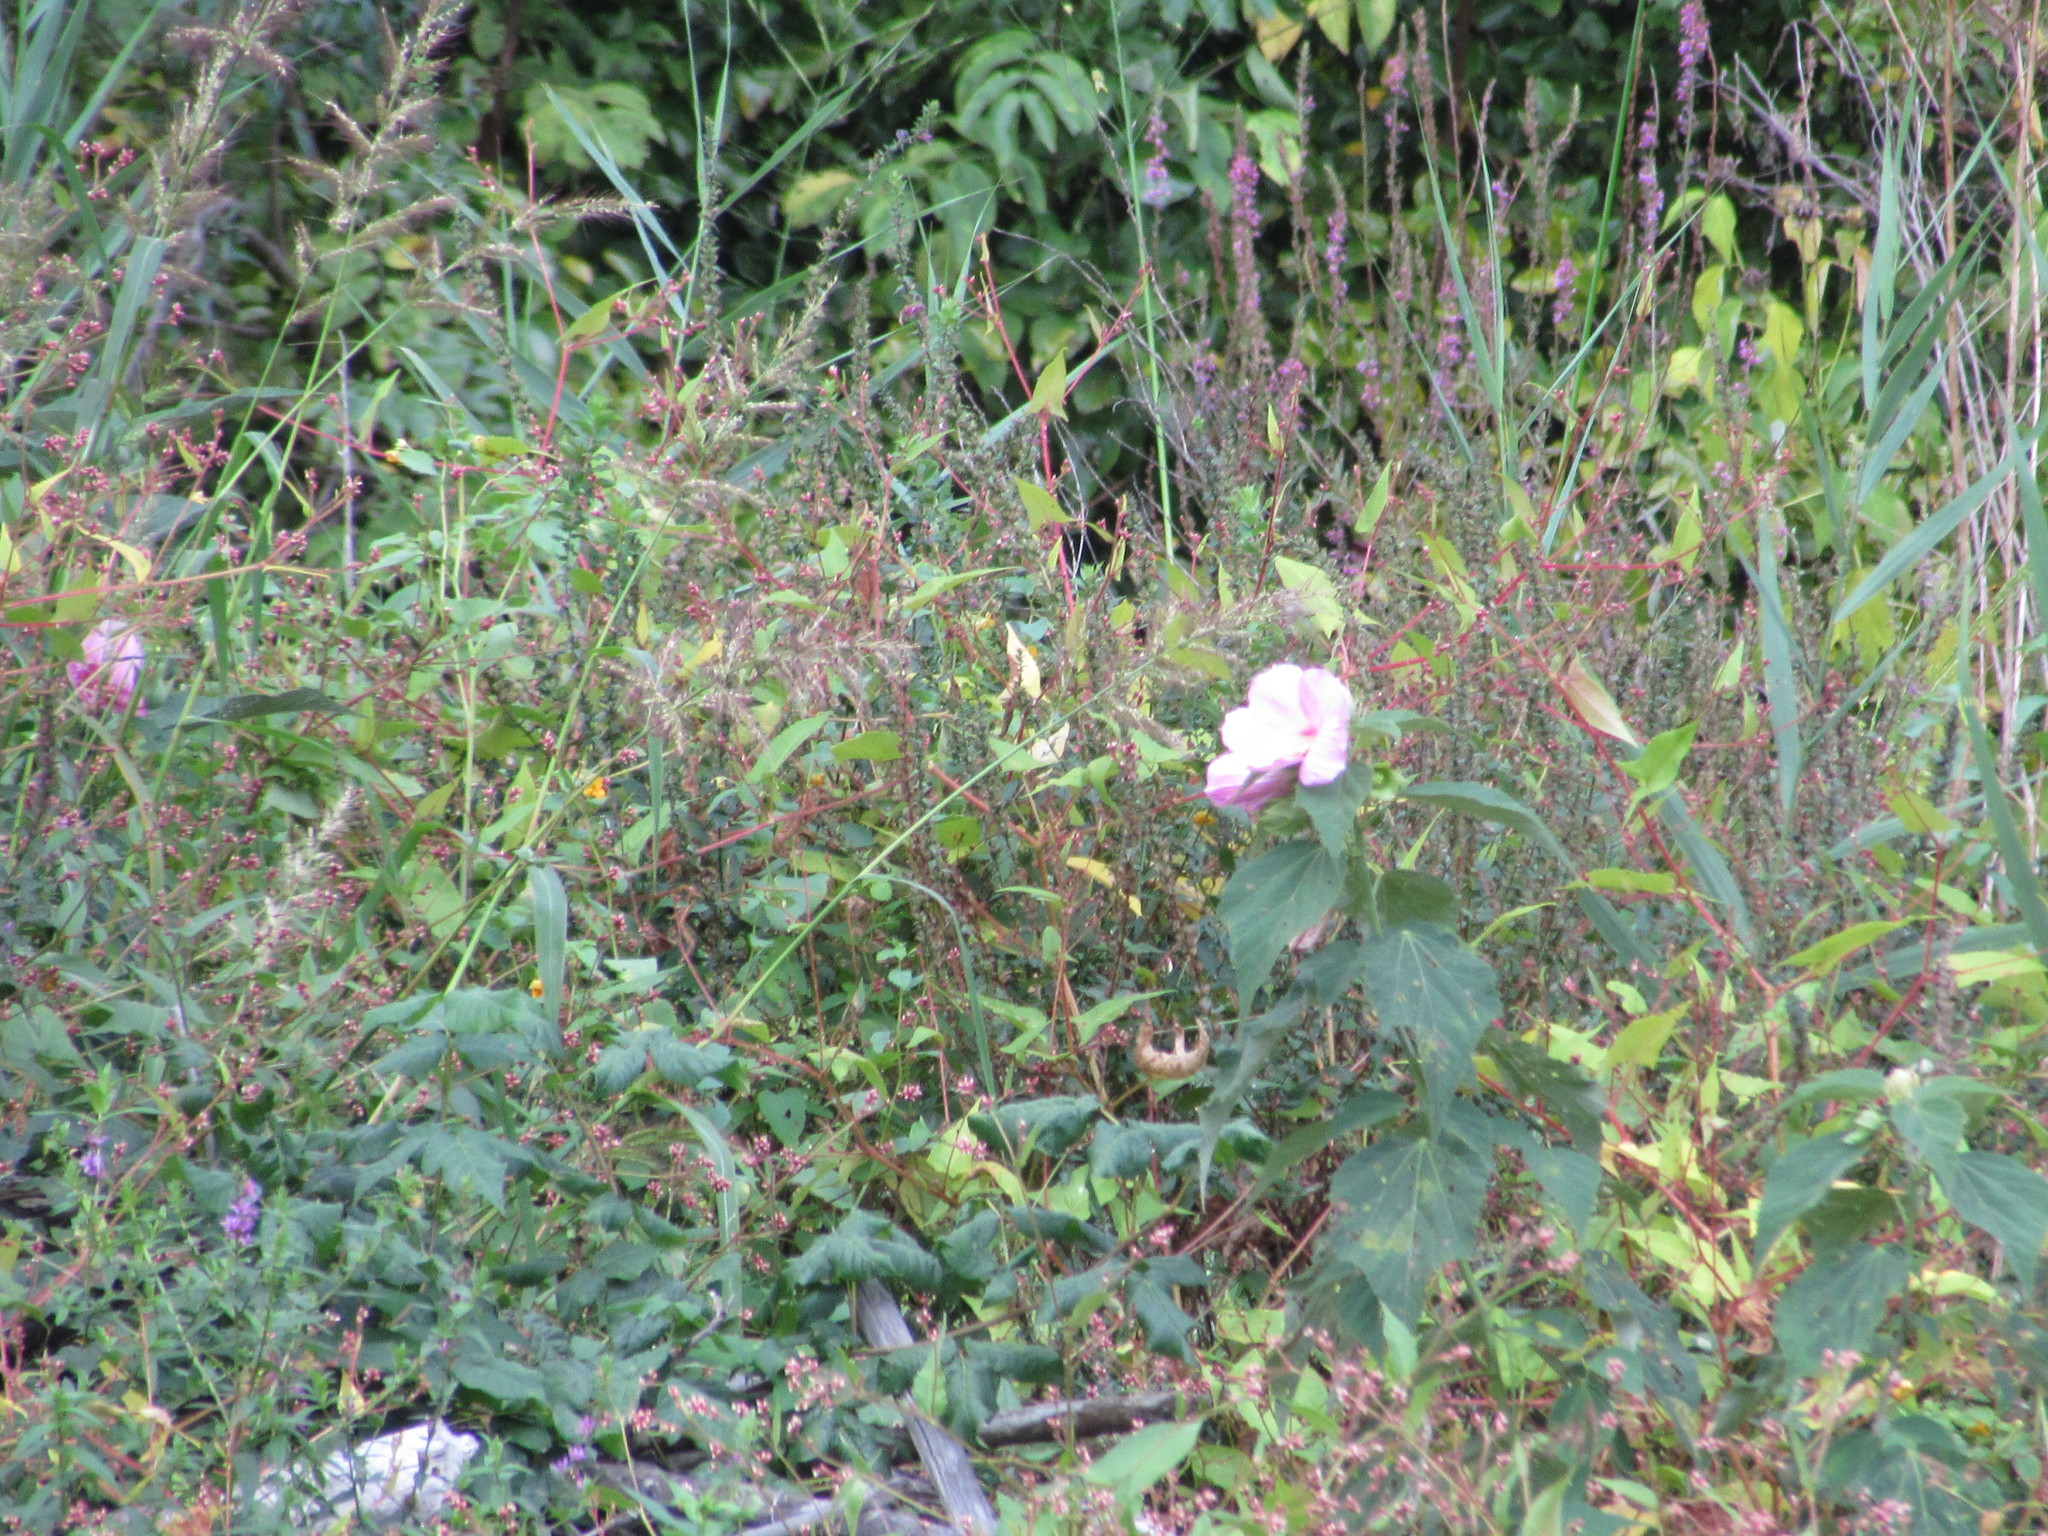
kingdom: Plantae
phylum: Tracheophyta
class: Magnoliopsida
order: Malvales
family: Malvaceae
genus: Hibiscus
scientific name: Hibiscus moscheutos
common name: Common rose-mallow
